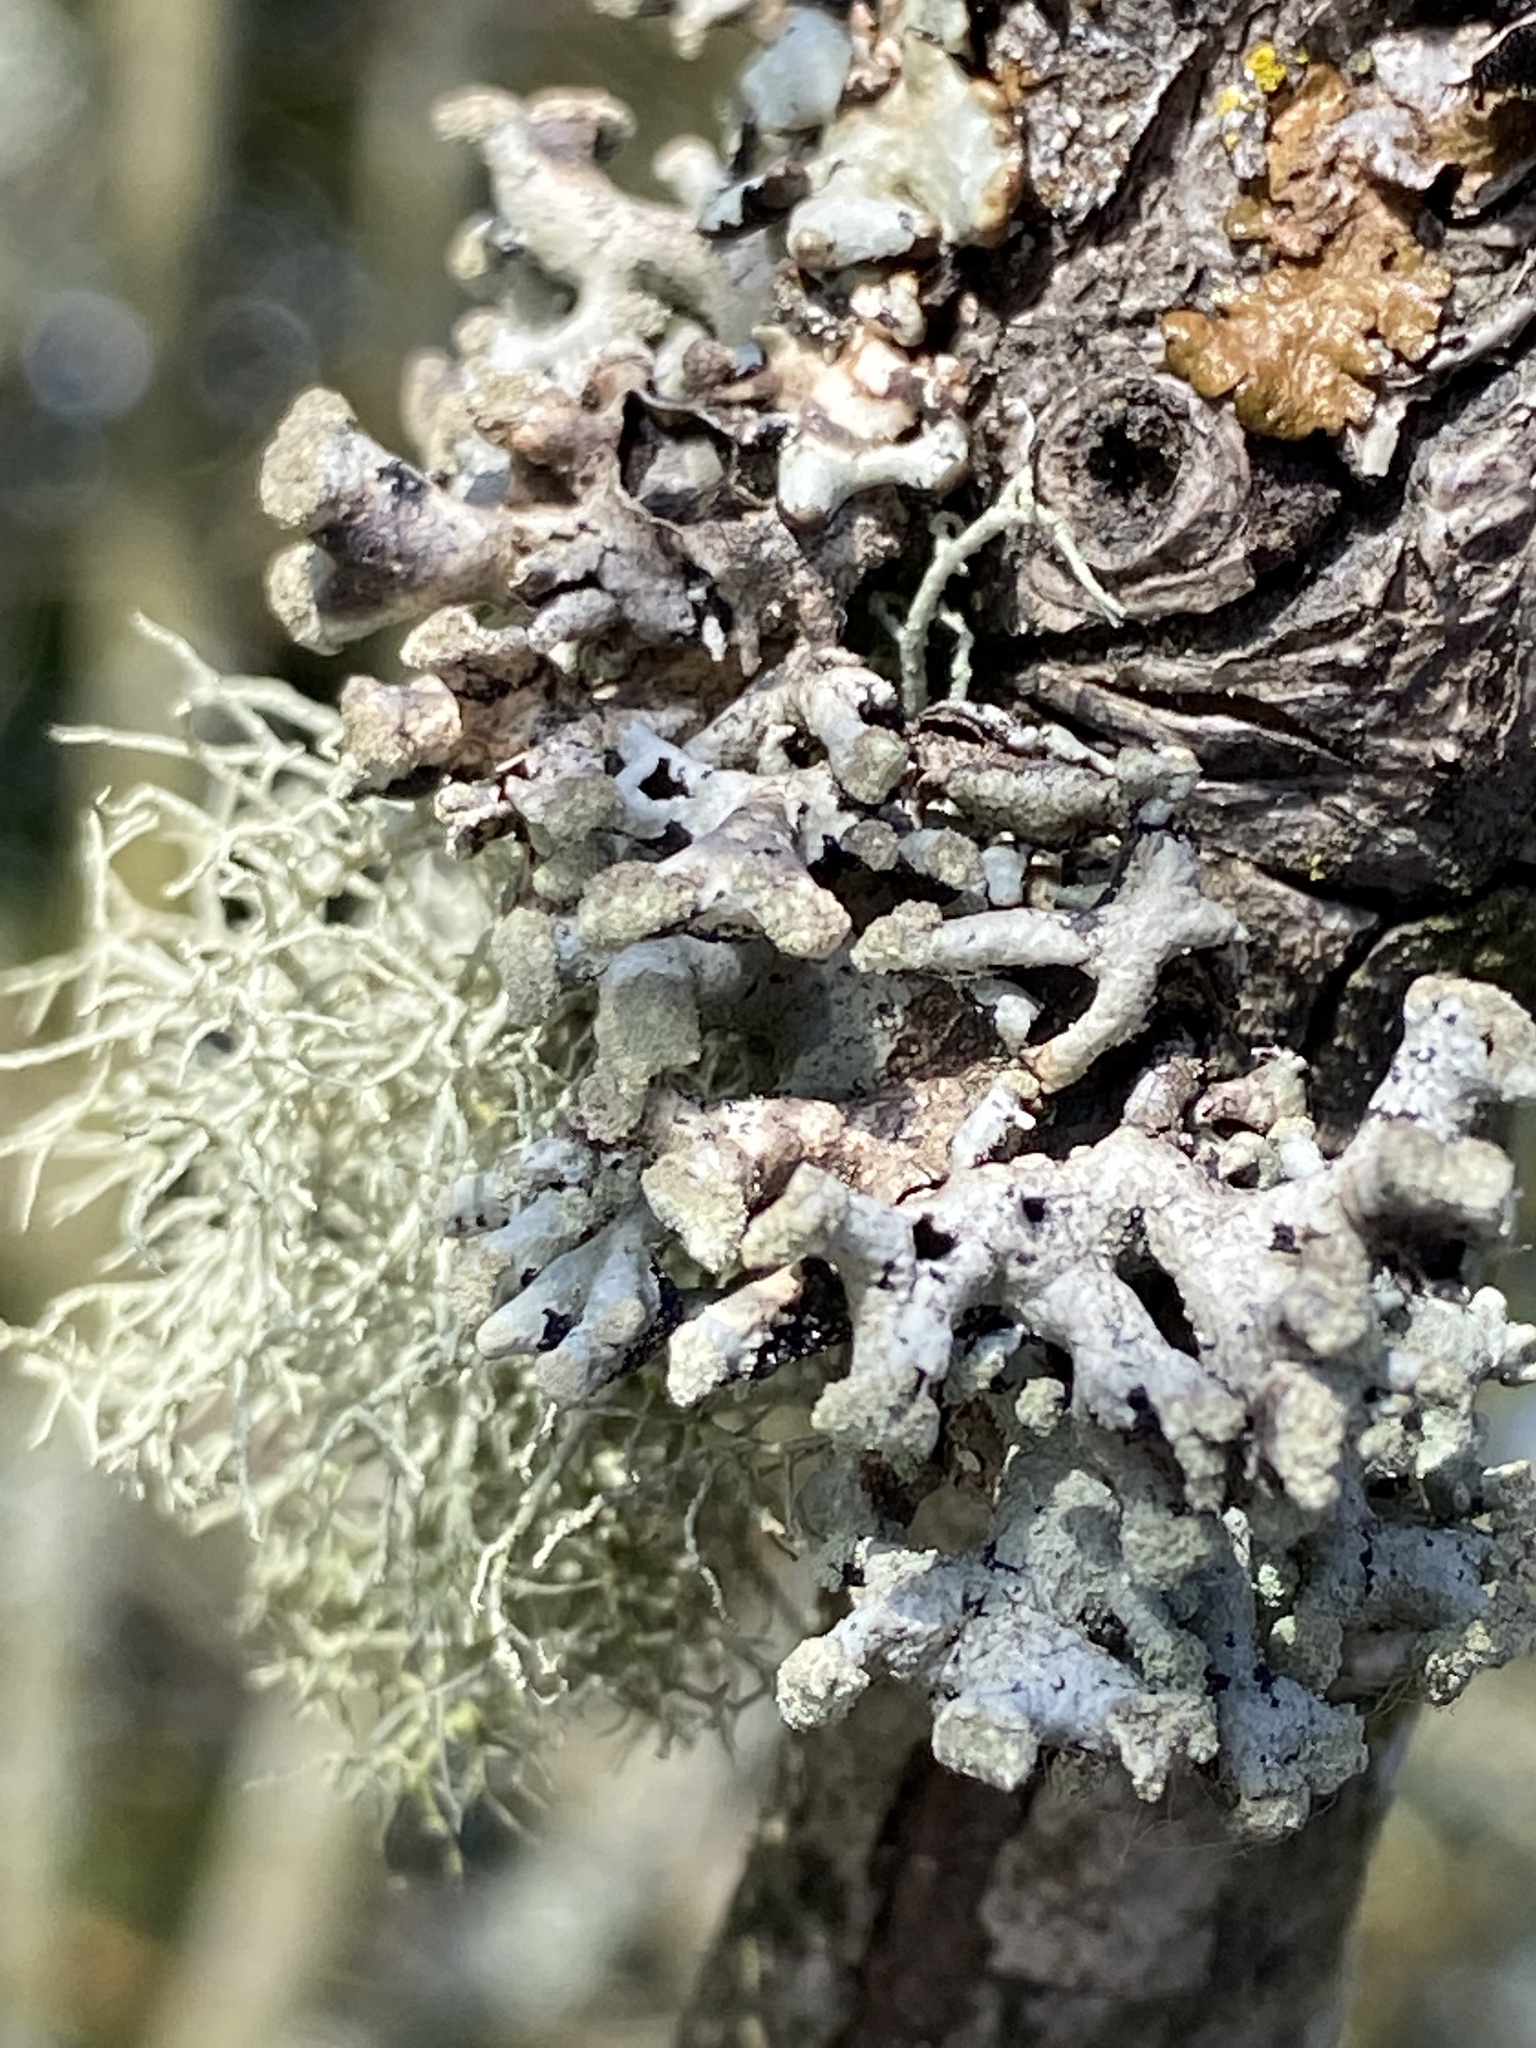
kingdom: Fungi
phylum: Ascomycota
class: Lecanoromycetes
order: Lecanorales
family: Parmeliaceae
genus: Hypogymnia
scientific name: Hypogymnia tubulosa
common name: Powder-headed tube lichen
